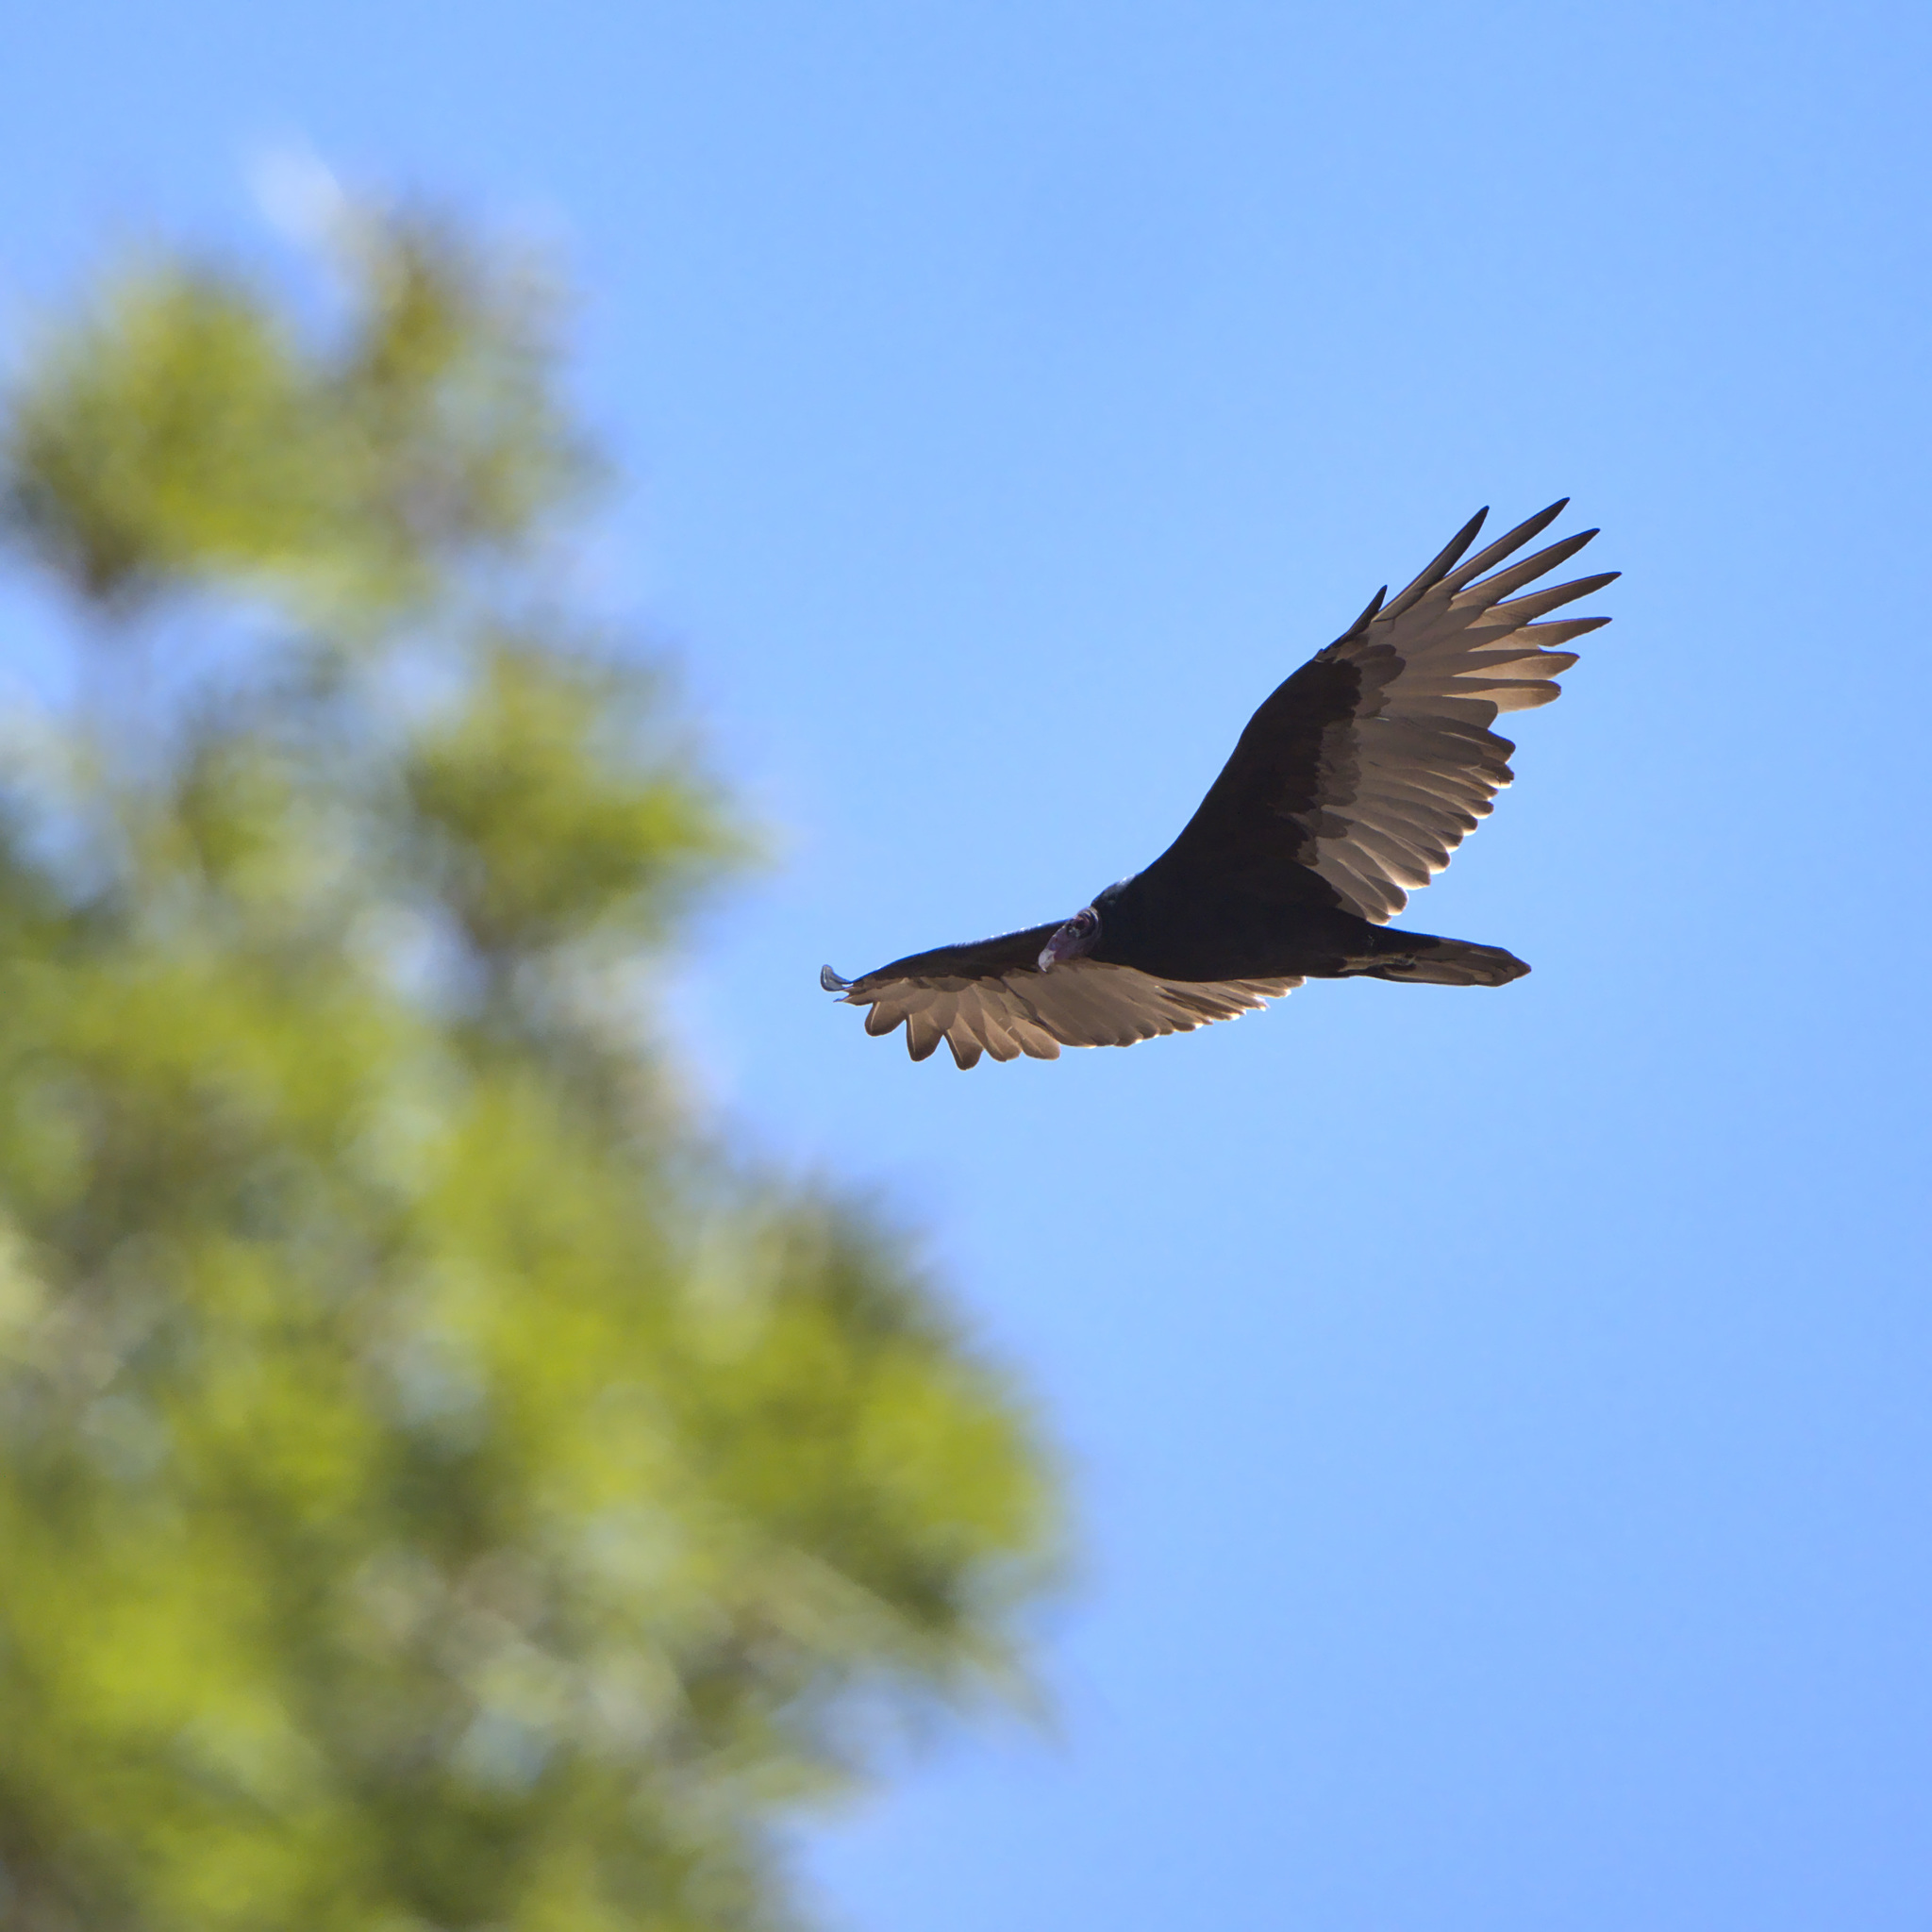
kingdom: Animalia
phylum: Chordata
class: Aves
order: Accipitriformes
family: Cathartidae
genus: Cathartes
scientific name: Cathartes aura
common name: Turkey vulture
